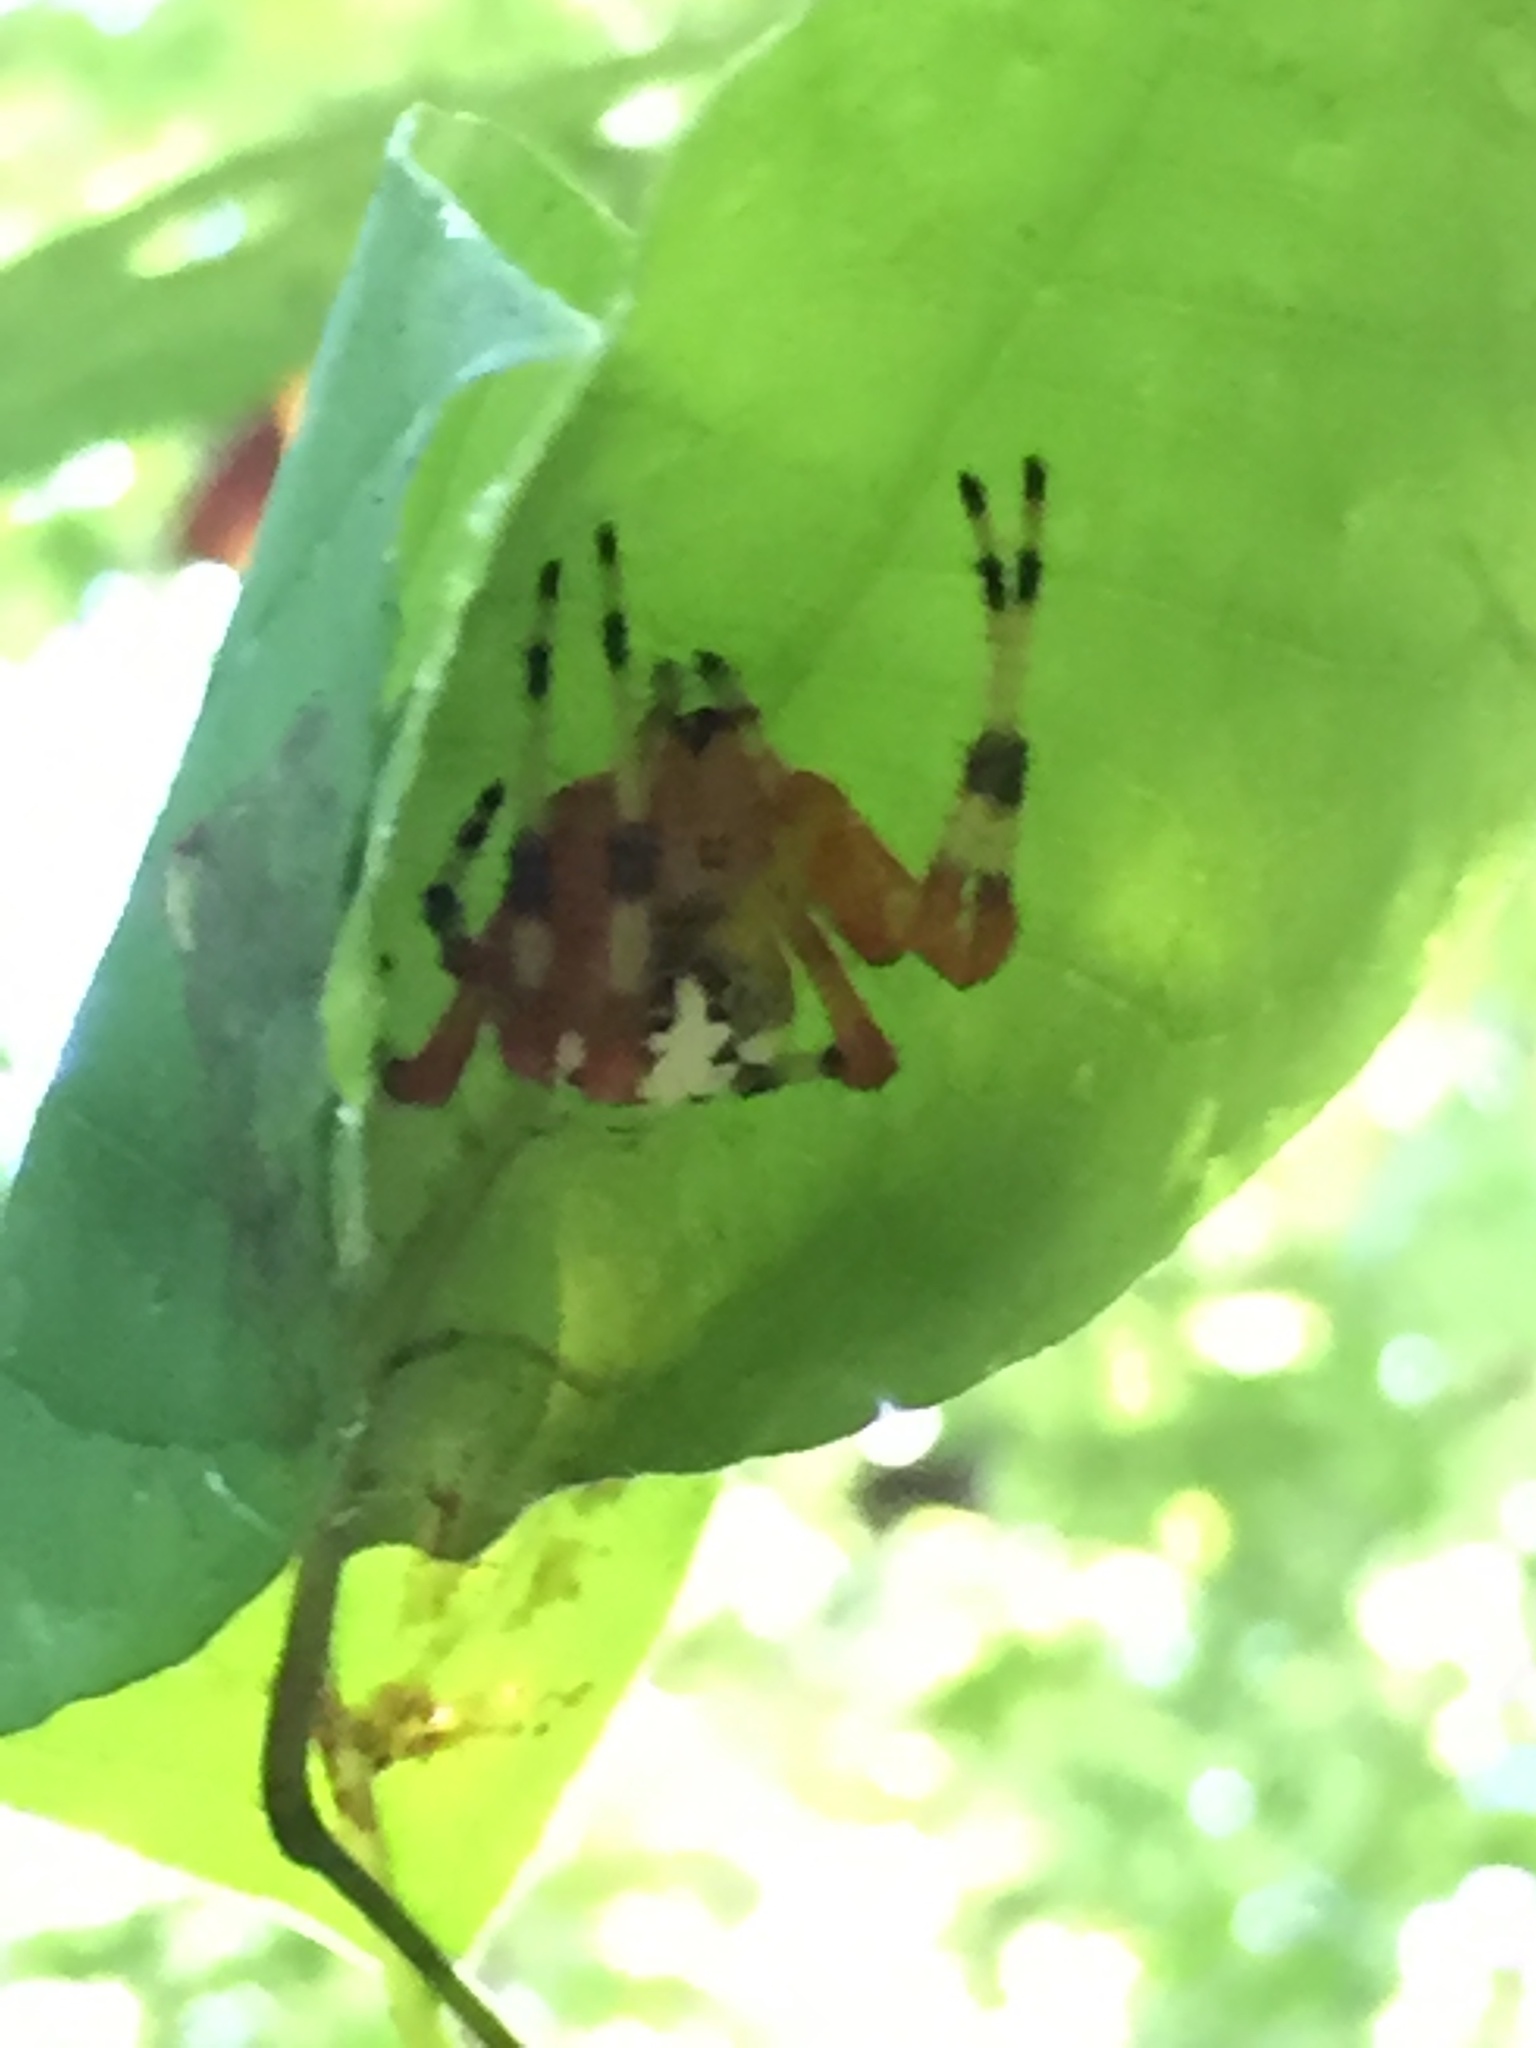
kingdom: Animalia
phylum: Arthropoda
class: Arachnida
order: Araneae
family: Araneidae
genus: Araneus
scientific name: Araneus marmoreus
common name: Marbled orbweaver
